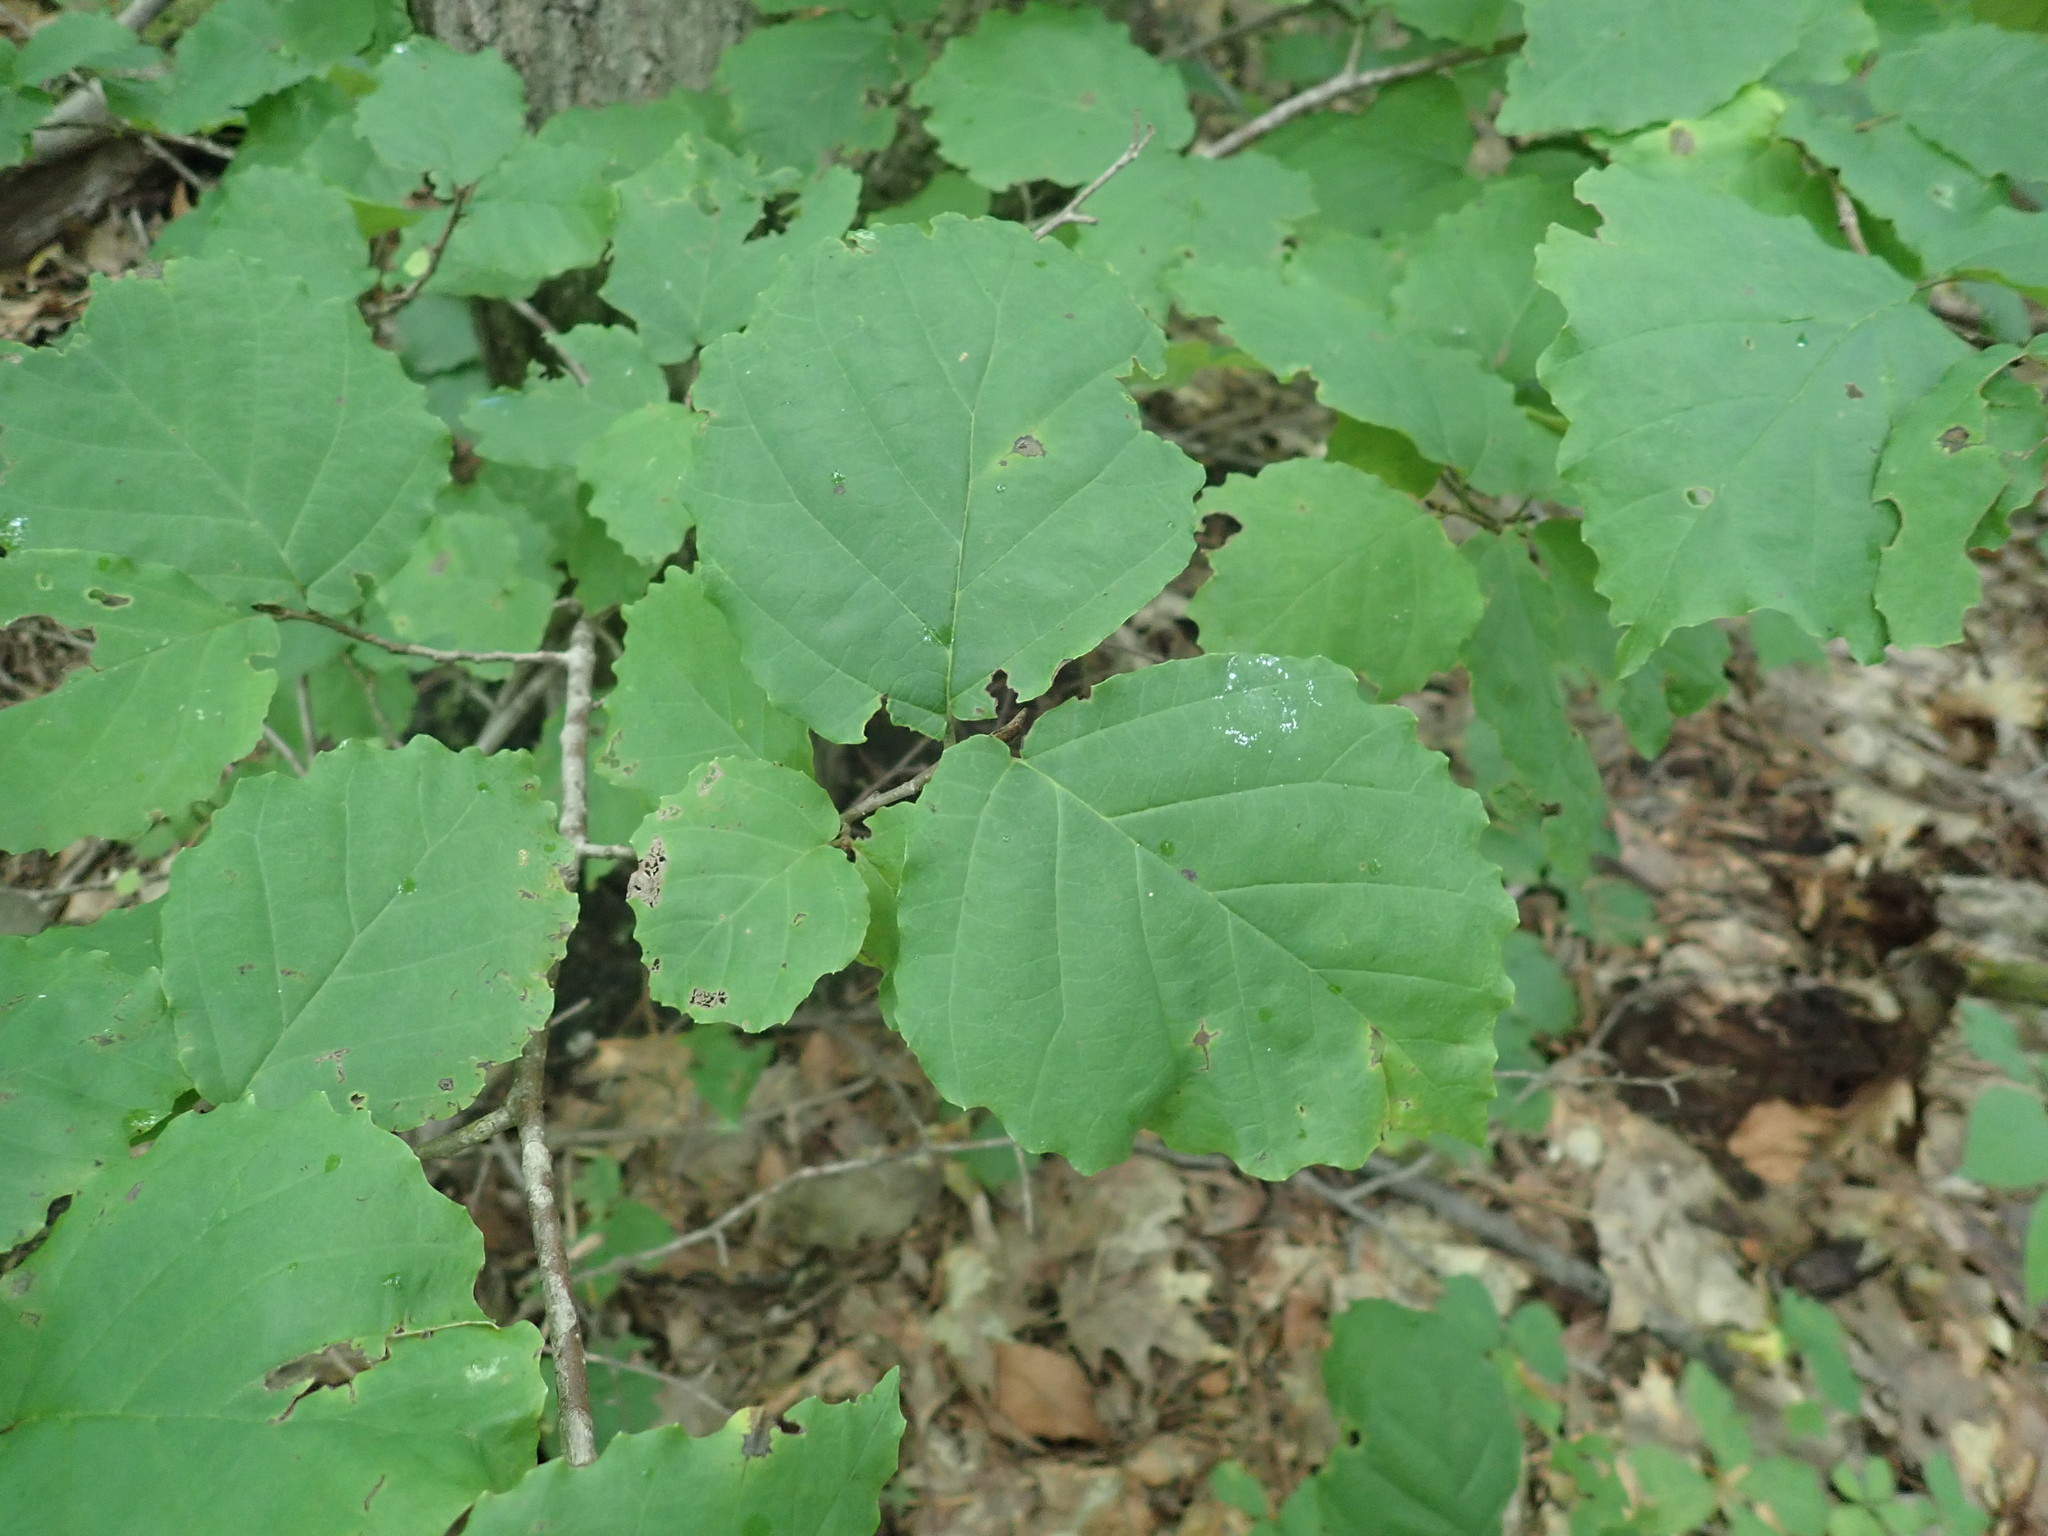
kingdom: Plantae
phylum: Tracheophyta
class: Magnoliopsida
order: Saxifragales
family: Hamamelidaceae
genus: Hamamelis
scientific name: Hamamelis virginiana
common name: Witch-hazel
